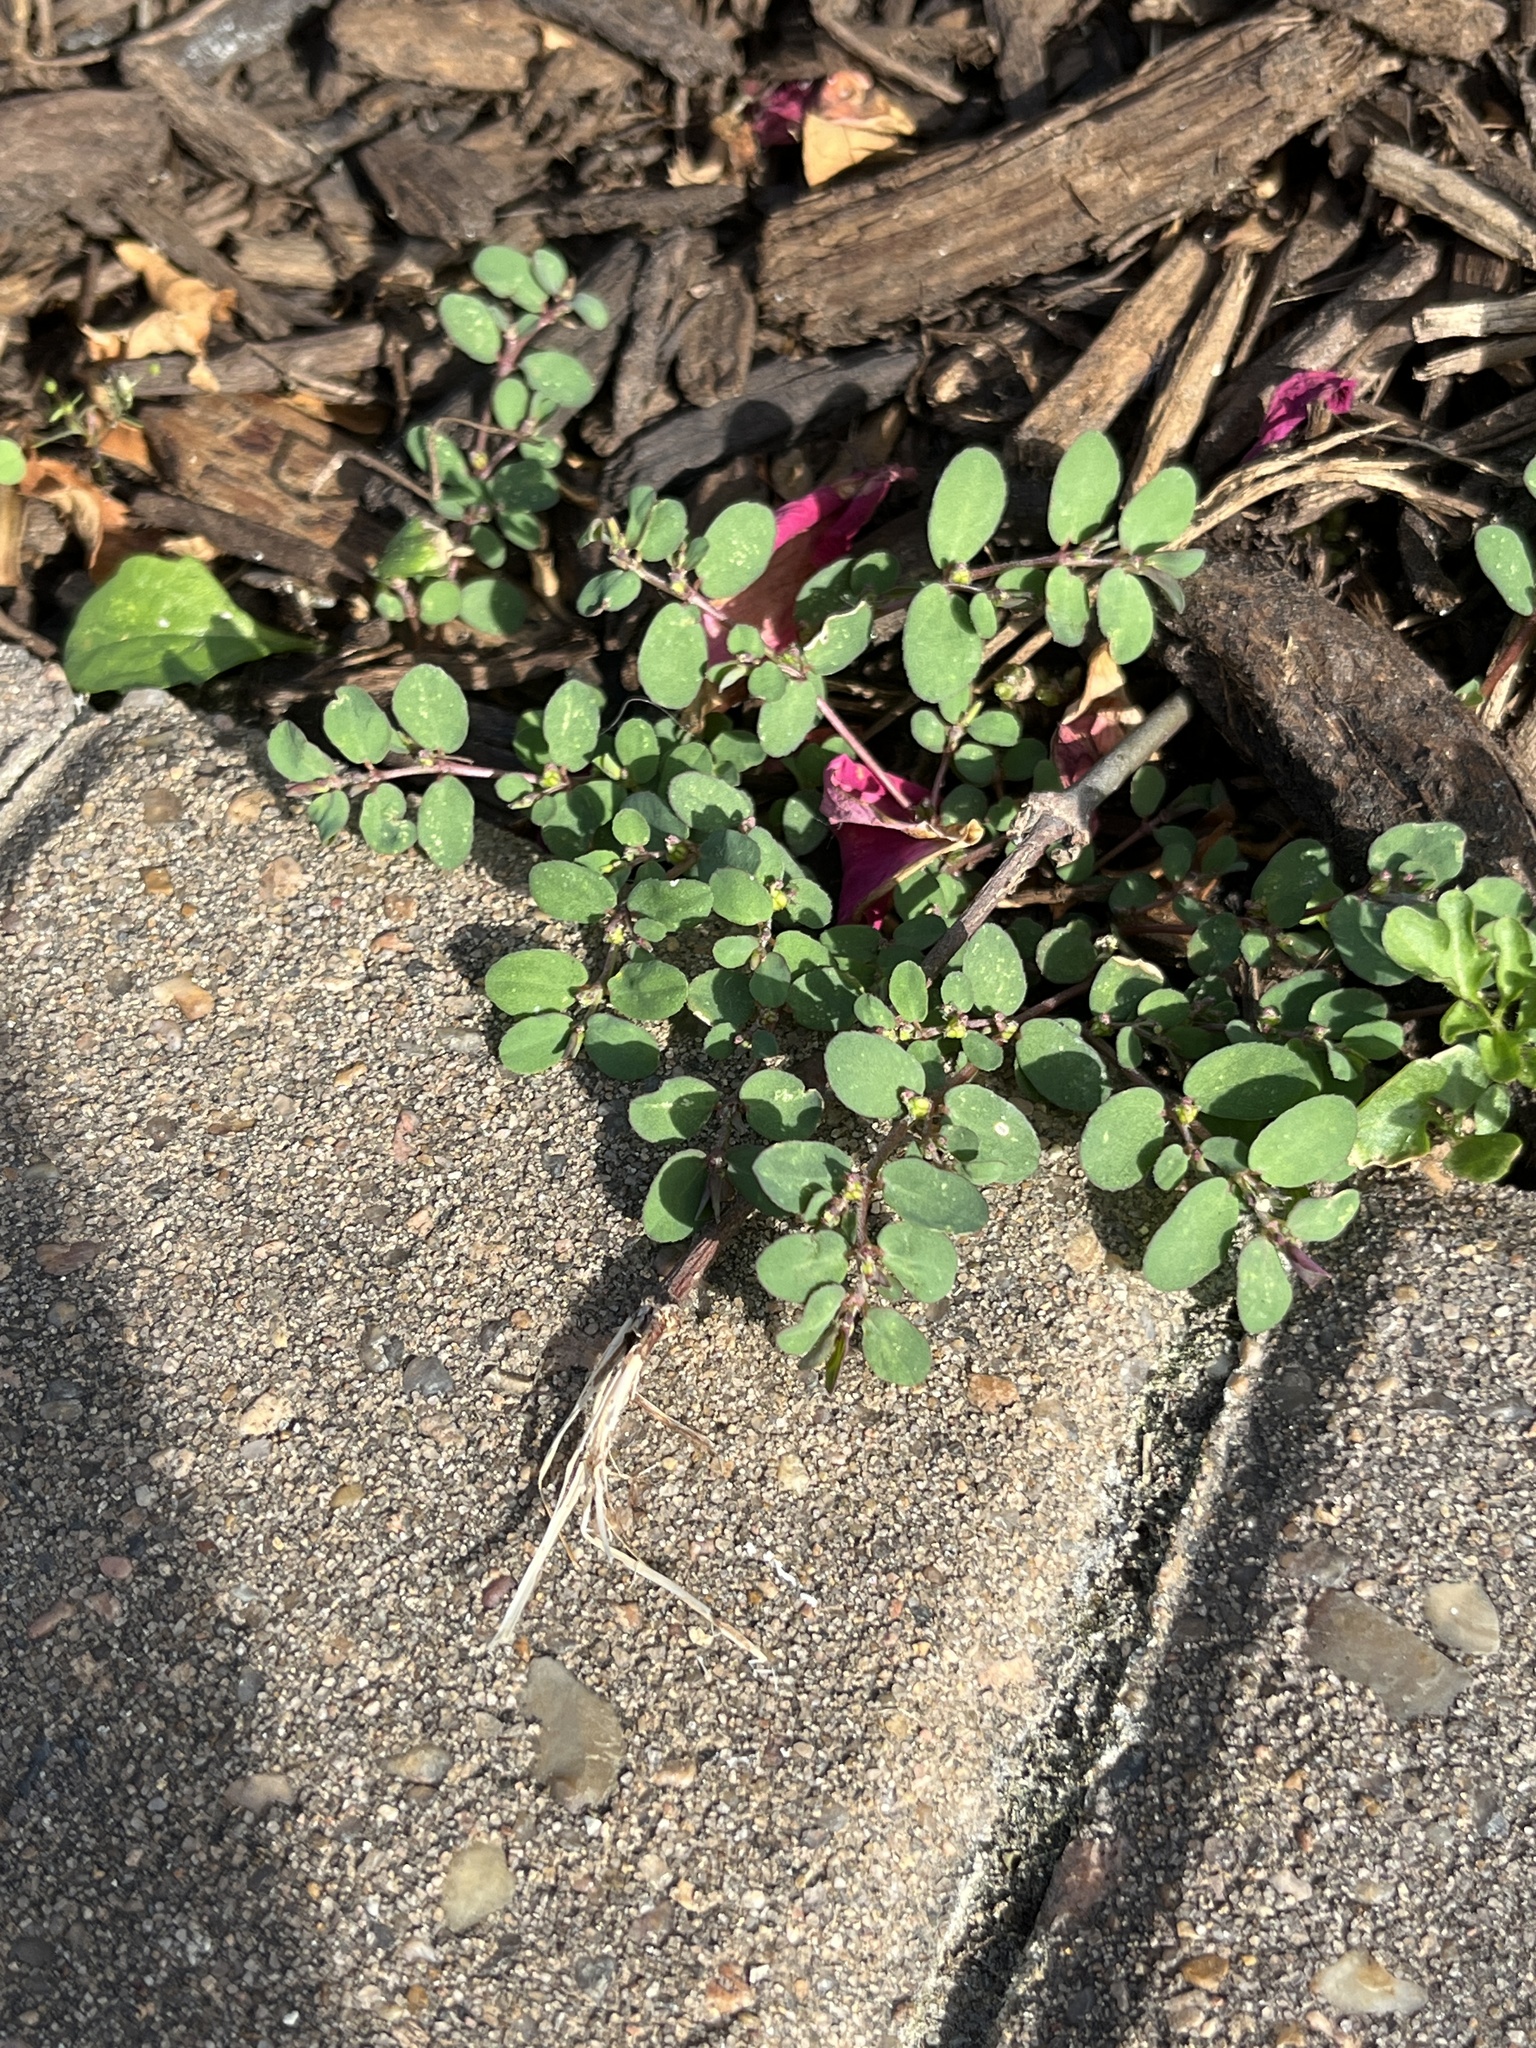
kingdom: Plantae
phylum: Tracheophyta
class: Magnoliopsida
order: Malpighiales
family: Euphorbiaceae
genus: Euphorbia
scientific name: Euphorbia prostrata
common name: Prostrate sandmat
